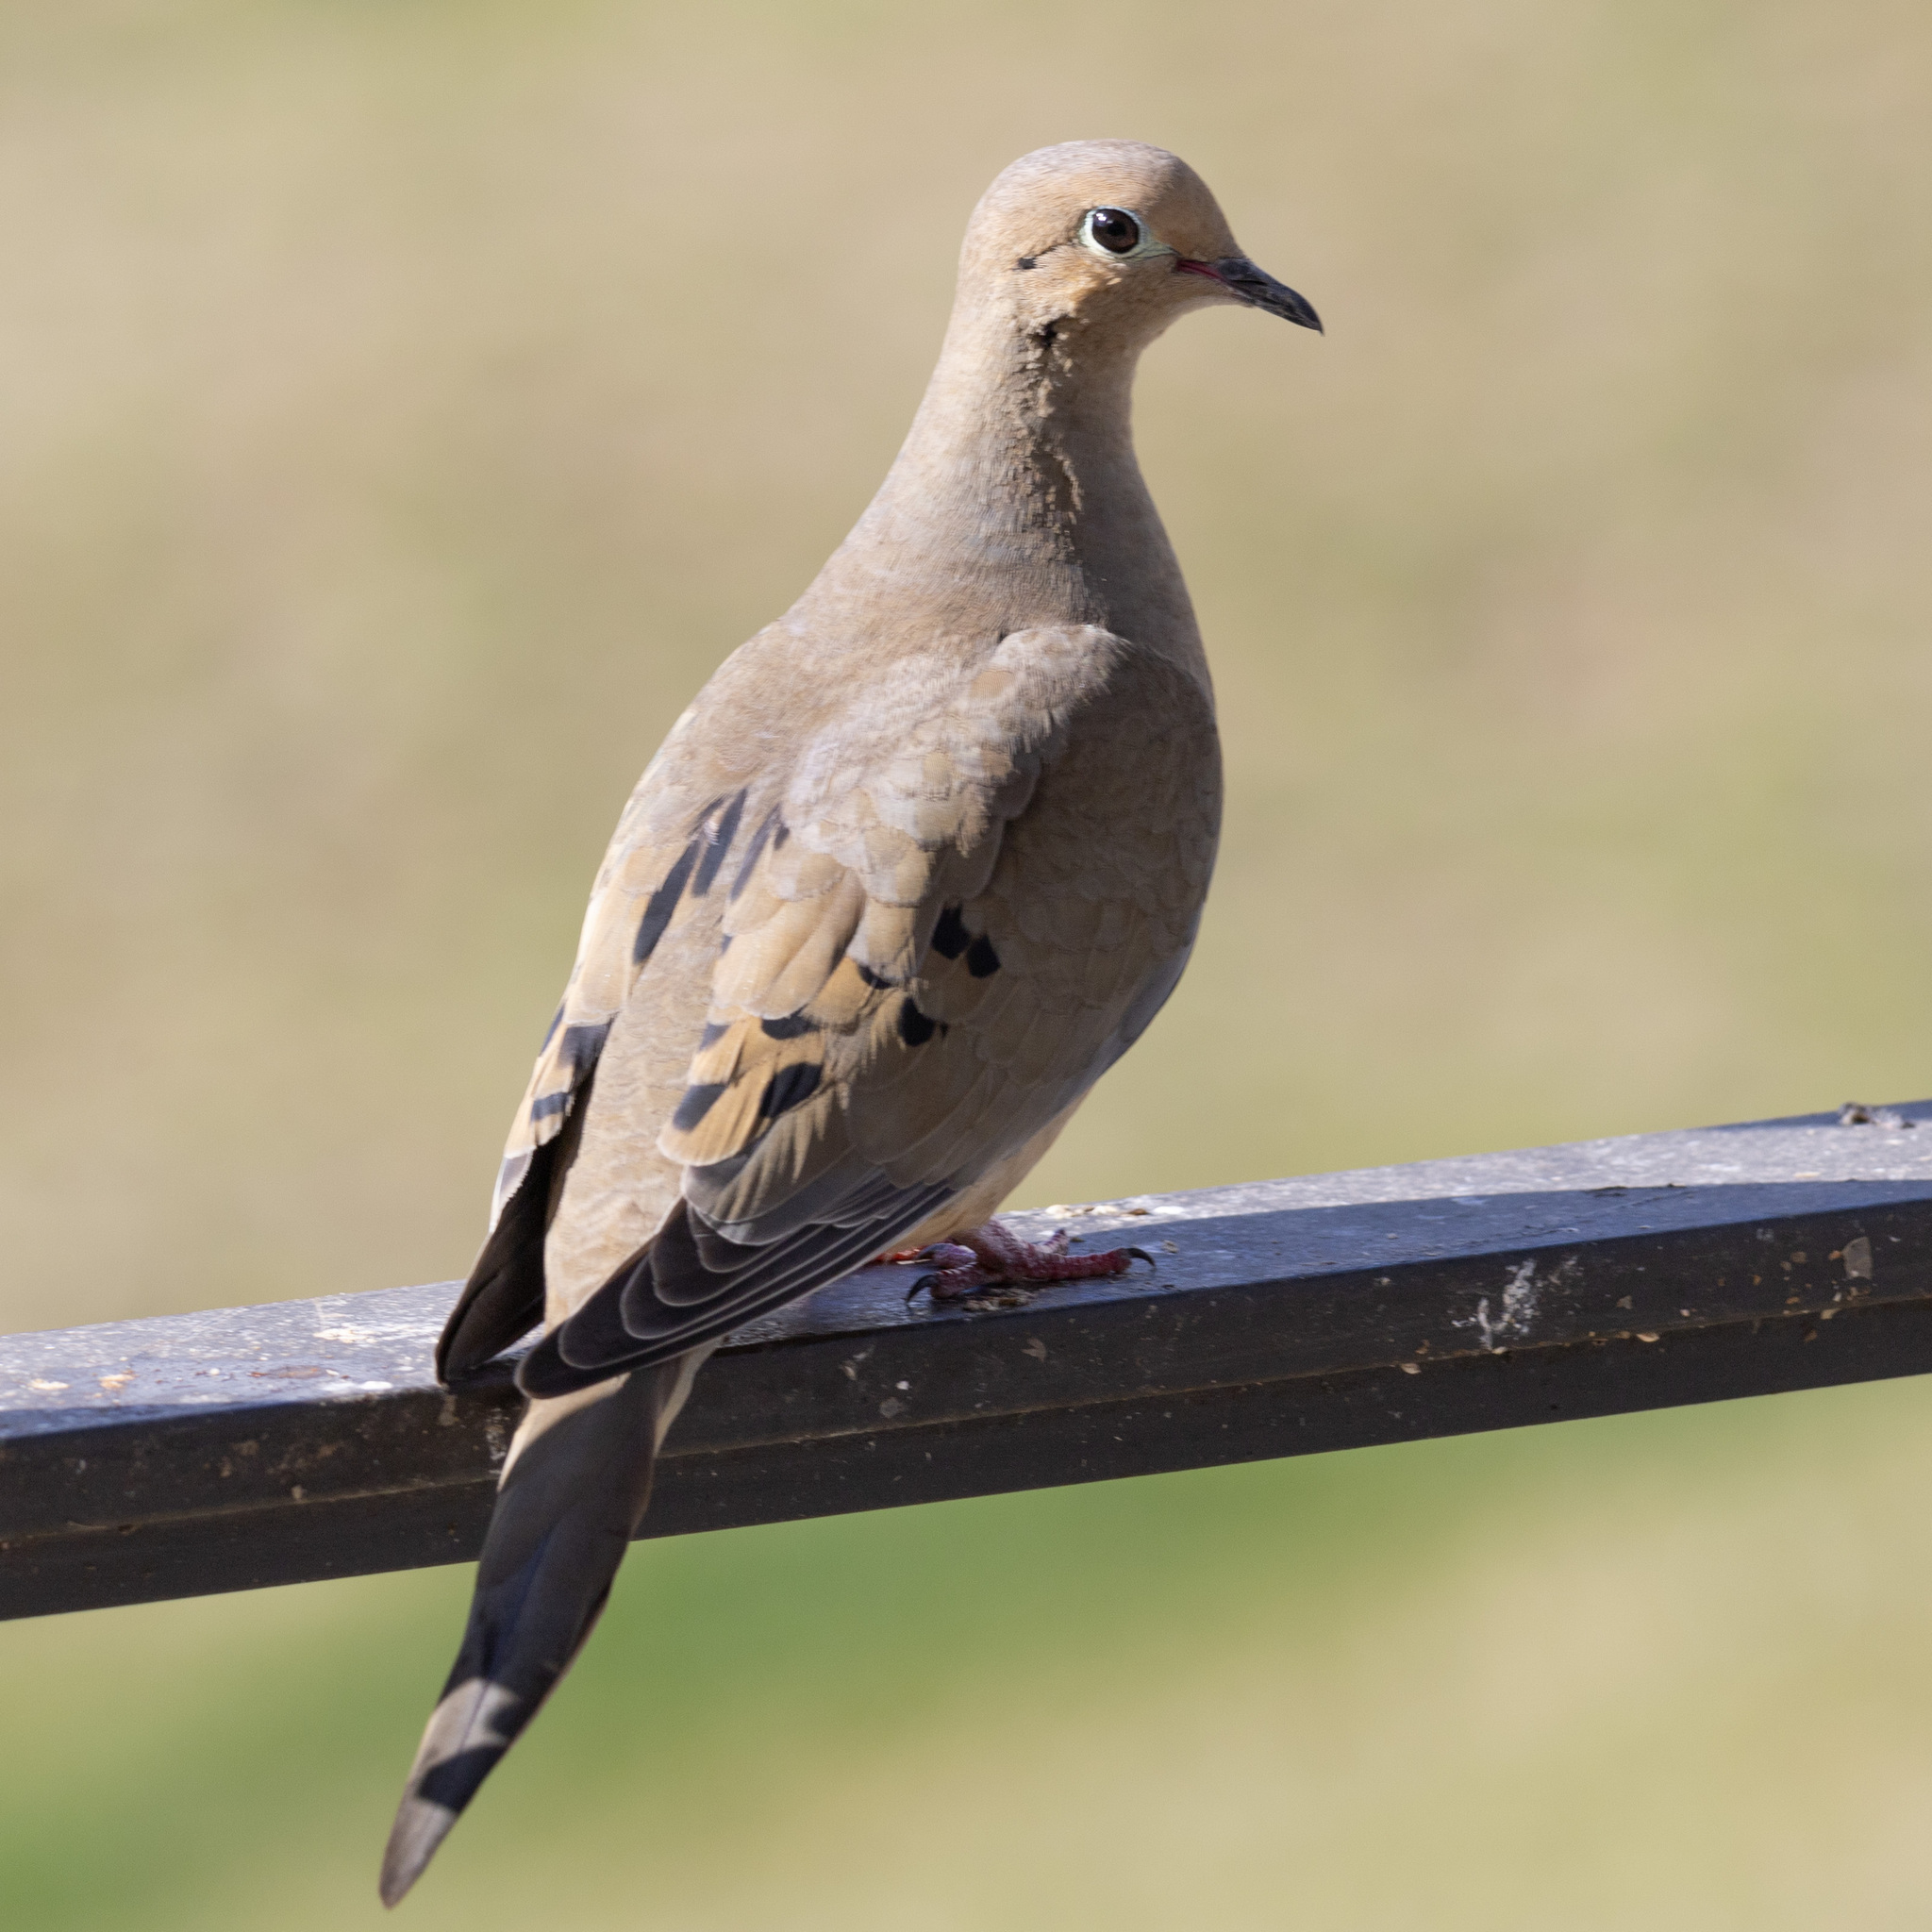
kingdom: Animalia
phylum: Chordata
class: Aves
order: Columbiformes
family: Columbidae
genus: Zenaida
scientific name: Zenaida macroura
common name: Mourning dove
